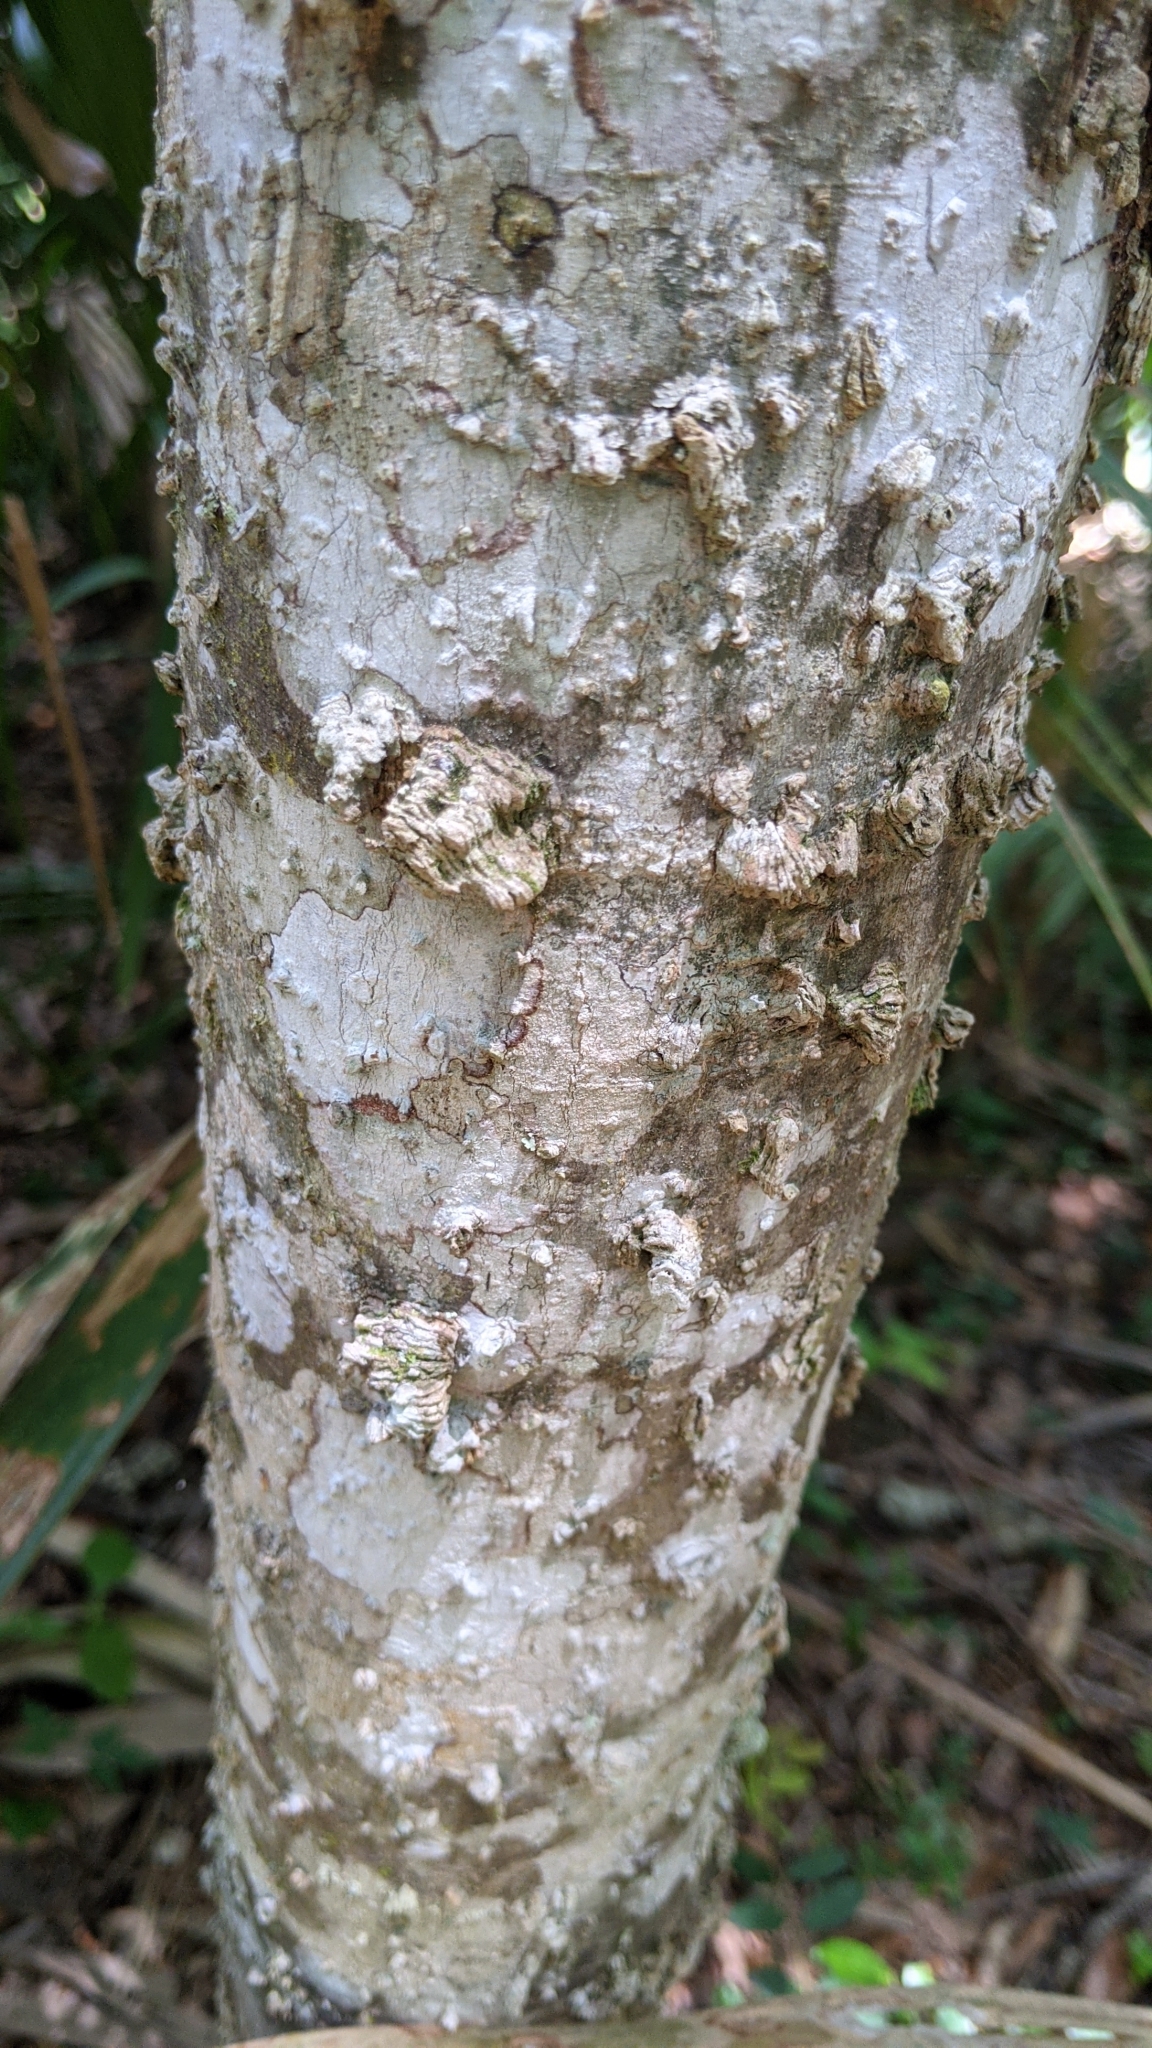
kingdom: Plantae
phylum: Tracheophyta
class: Magnoliopsida
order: Rosales
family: Cannabaceae
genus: Celtis
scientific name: Celtis laevigata
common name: Sugarberry
